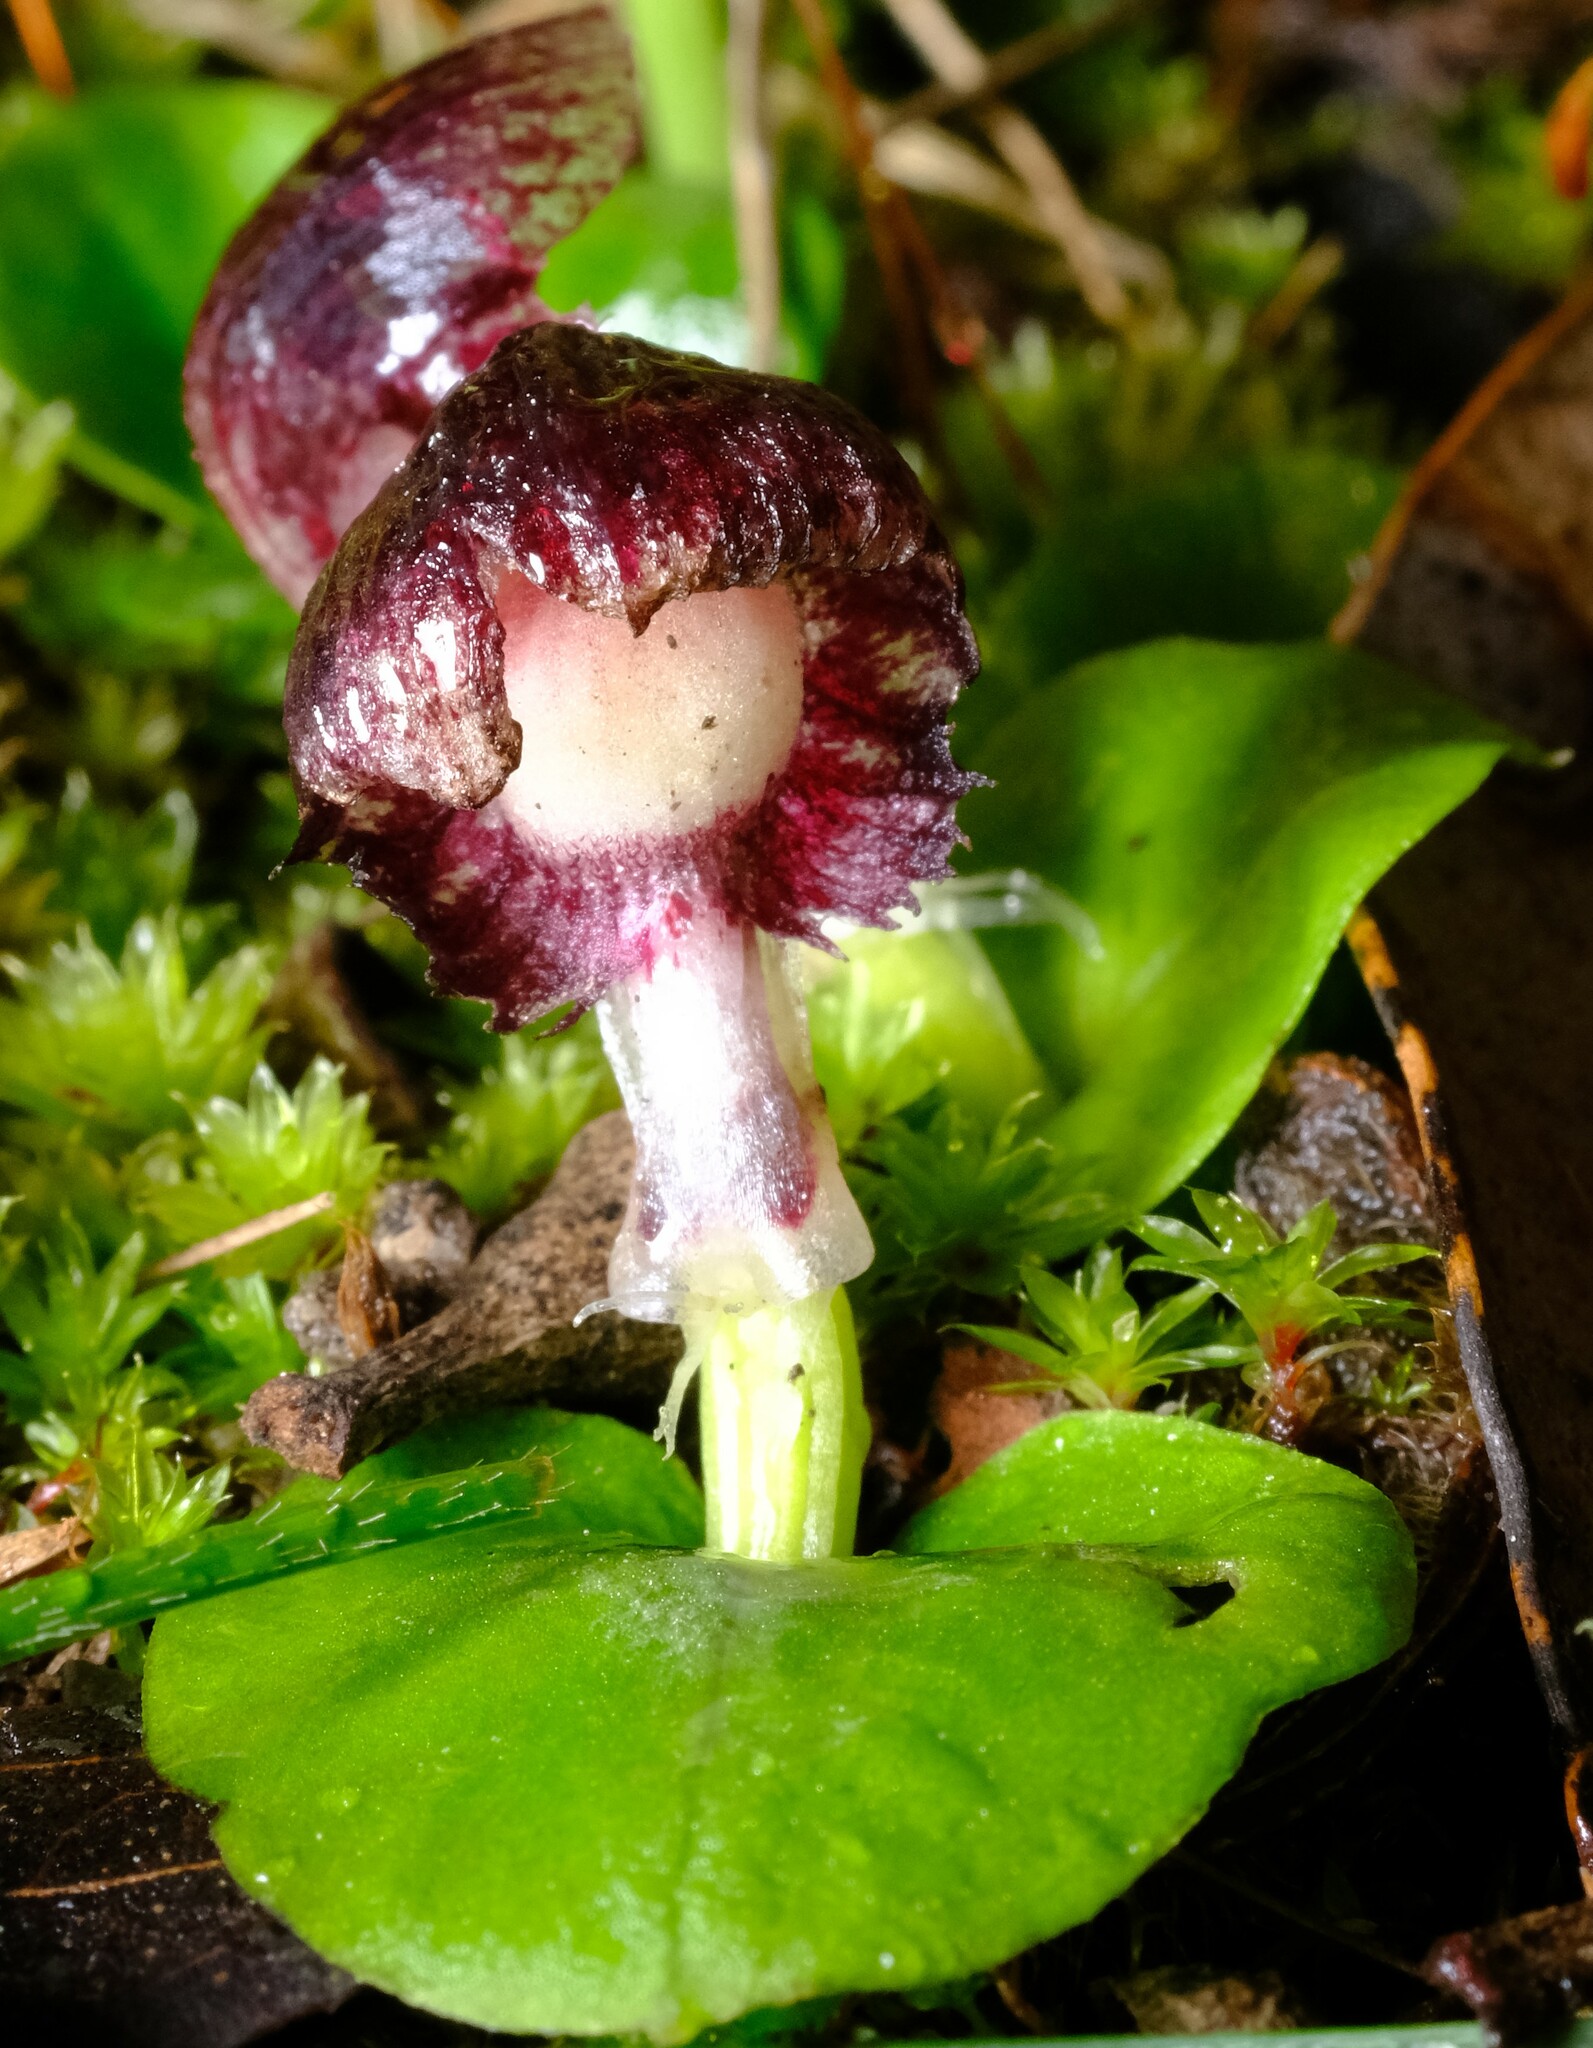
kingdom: Plantae
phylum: Tracheophyta
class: Liliopsida
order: Asparagales
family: Orchidaceae
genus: Corybas
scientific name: Corybas diemenicus
